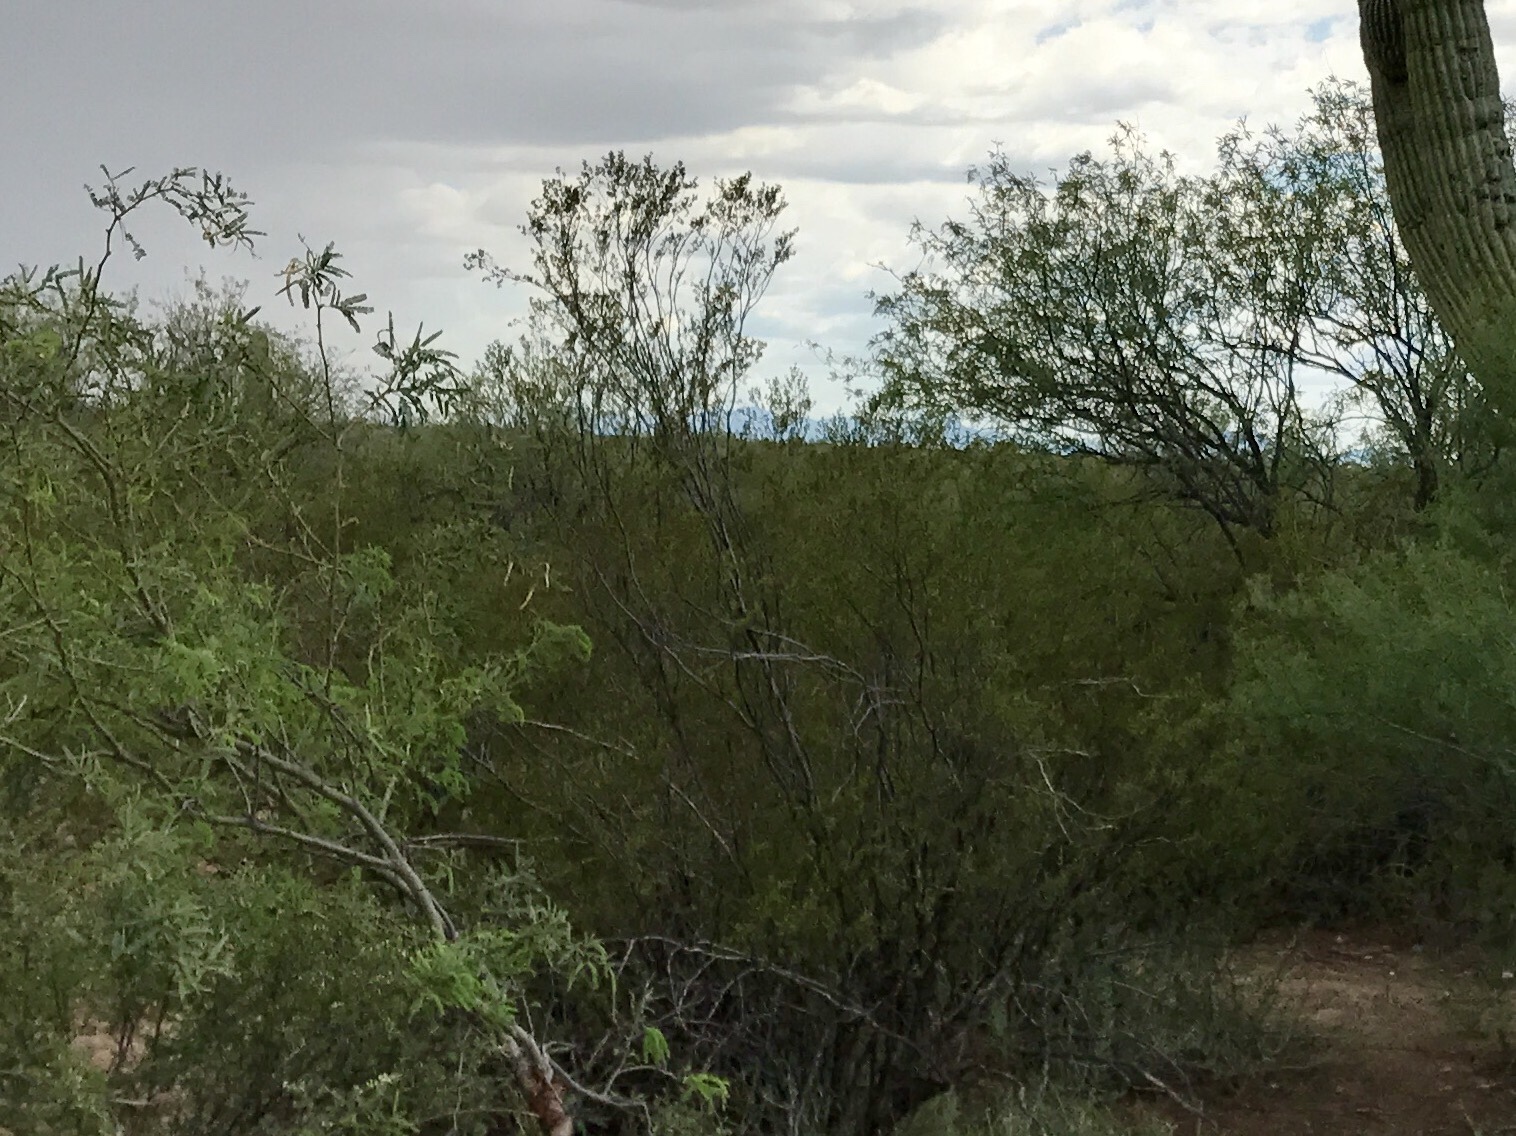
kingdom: Plantae
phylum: Tracheophyta
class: Magnoliopsida
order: Zygophyllales
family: Zygophyllaceae
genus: Larrea
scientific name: Larrea tridentata
